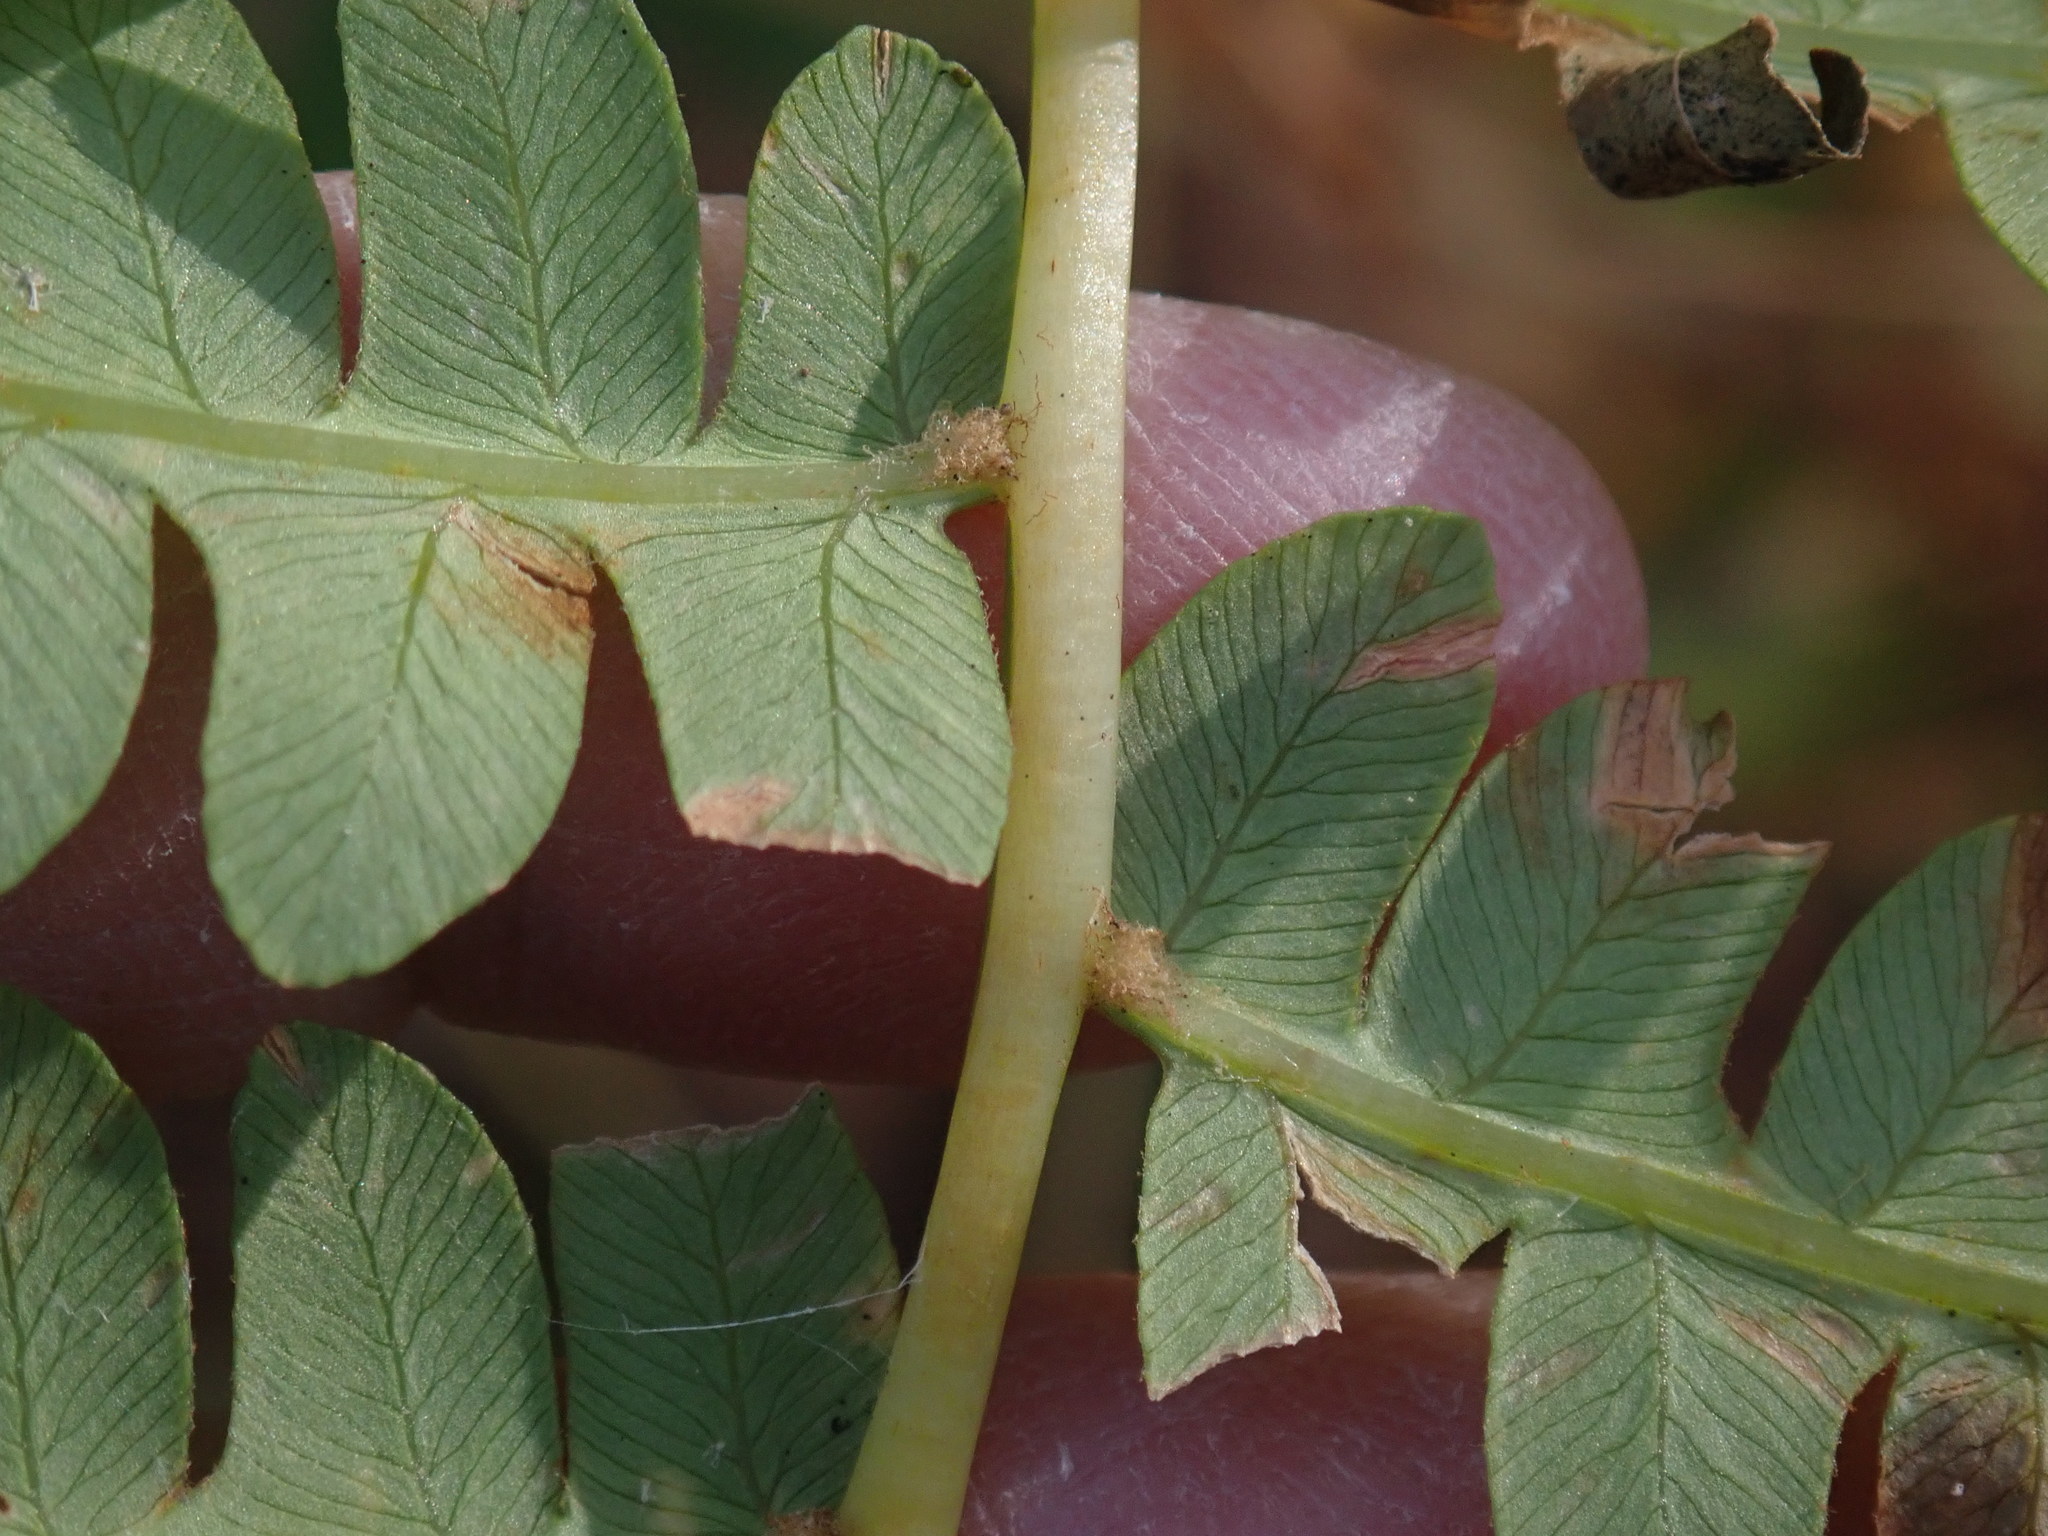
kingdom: Plantae
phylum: Tracheophyta
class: Polypodiopsida
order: Osmundales
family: Osmundaceae
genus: Osmundastrum
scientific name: Osmundastrum cinnamomeum
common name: Cinnamon fern
